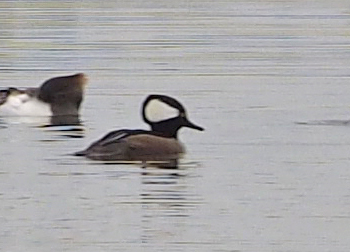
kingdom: Animalia
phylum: Chordata
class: Aves
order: Anseriformes
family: Anatidae
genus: Lophodytes
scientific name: Lophodytes cucullatus
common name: Hooded merganser
